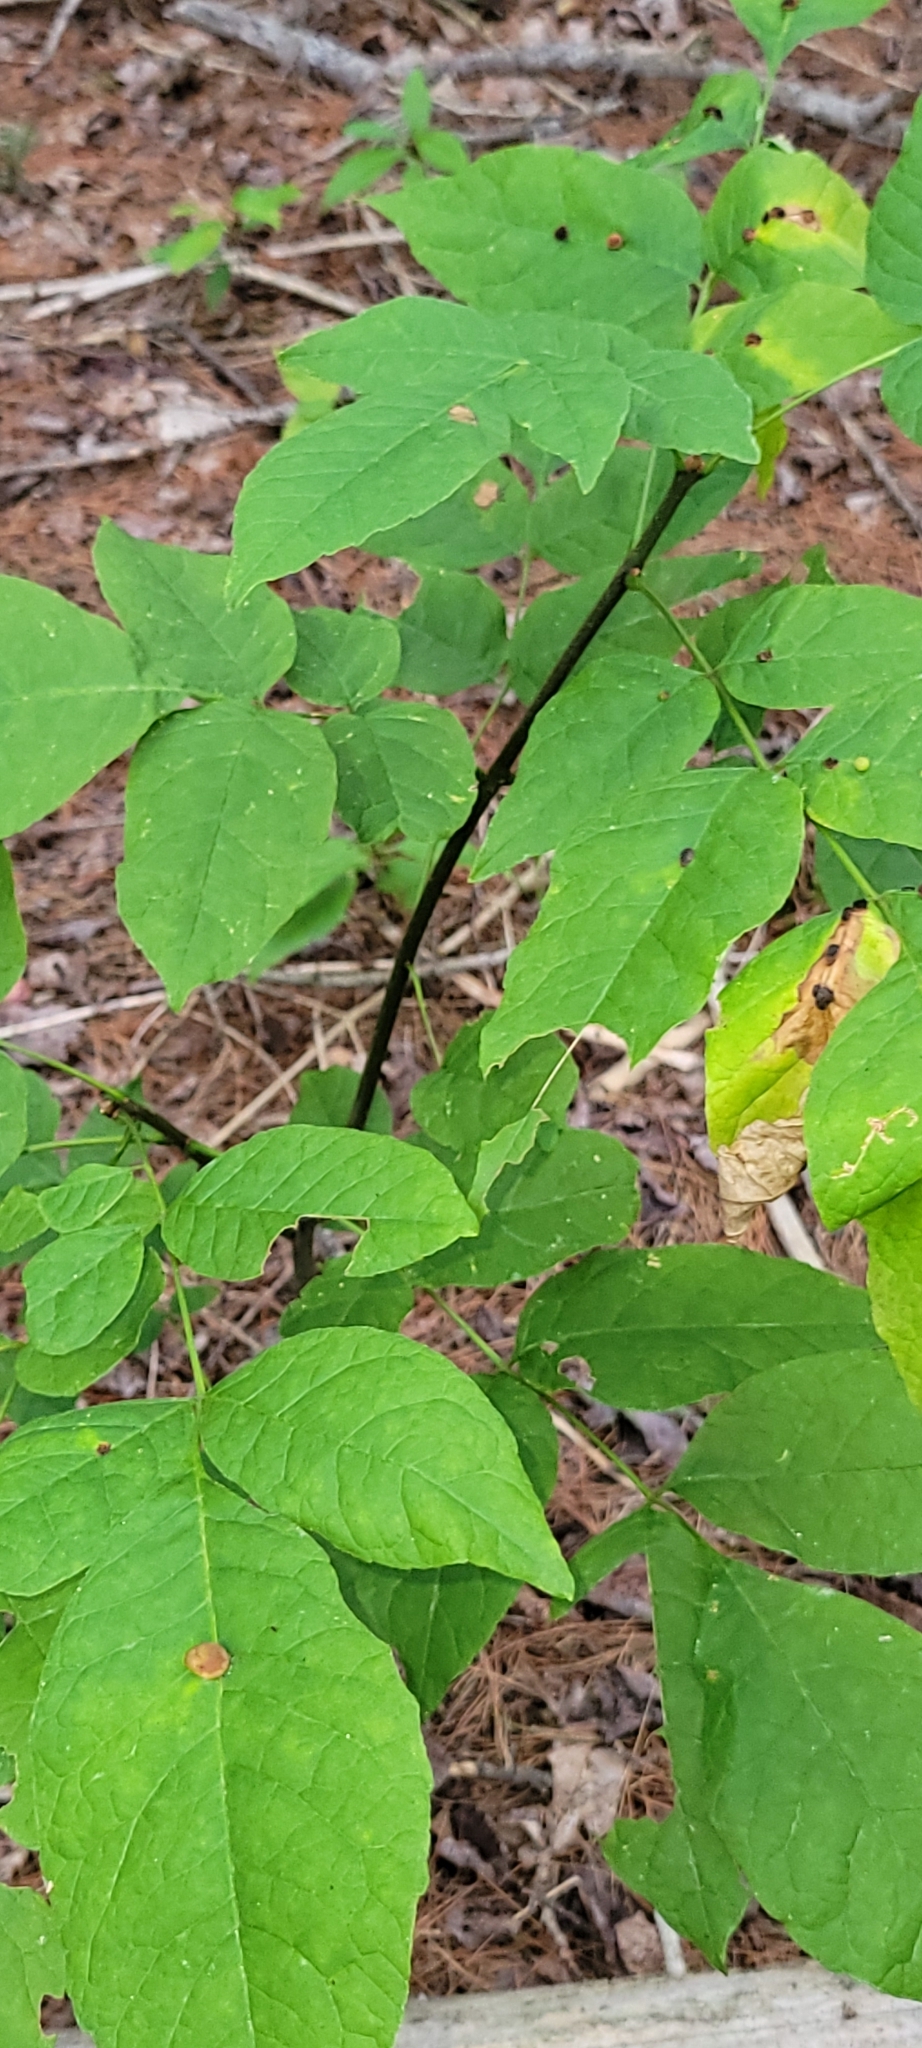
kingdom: Animalia
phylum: Arthropoda
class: Insecta
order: Diptera
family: Cecidomyiidae
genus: Dasineura
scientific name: Dasineura pellex
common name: Ash bullet gall midge
